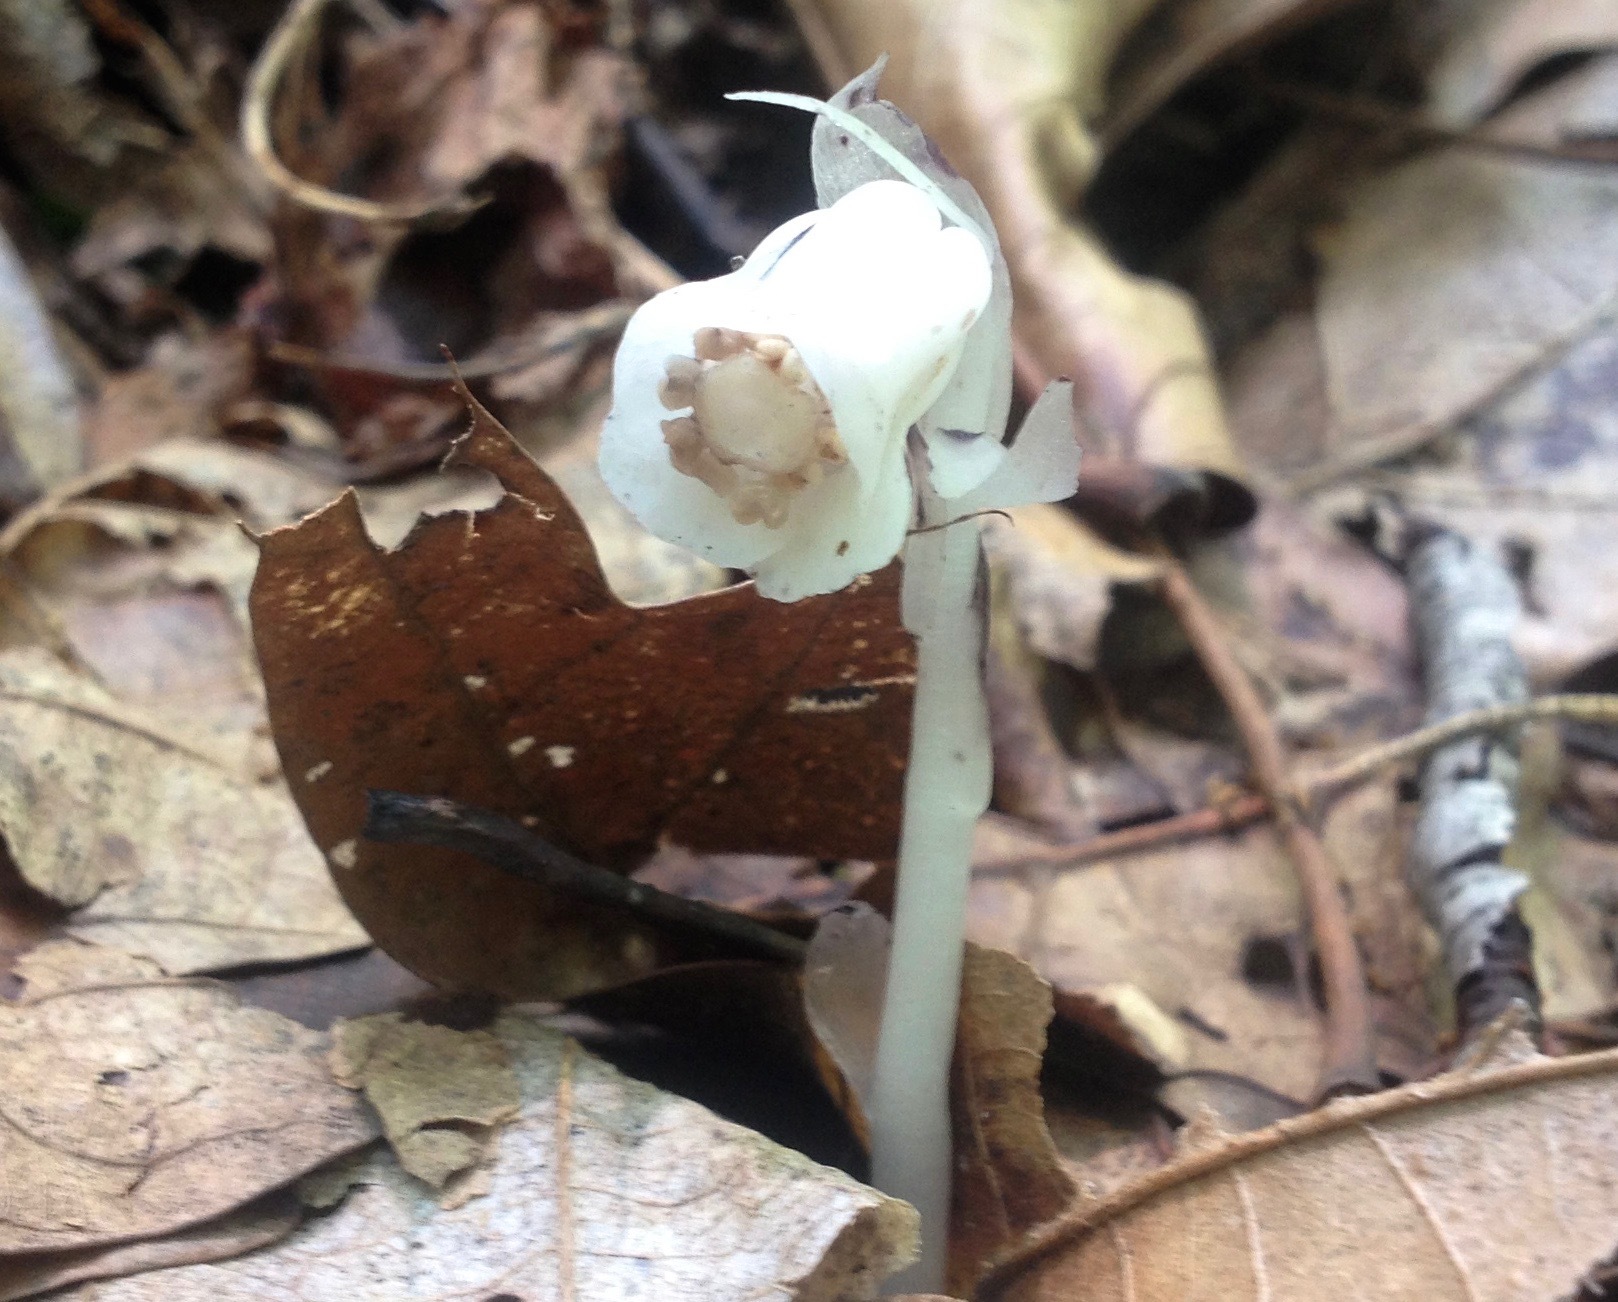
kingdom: Plantae
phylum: Tracheophyta
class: Magnoliopsida
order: Ericales
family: Ericaceae
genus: Monotropa
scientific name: Monotropa uniflora
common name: Convulsion root
